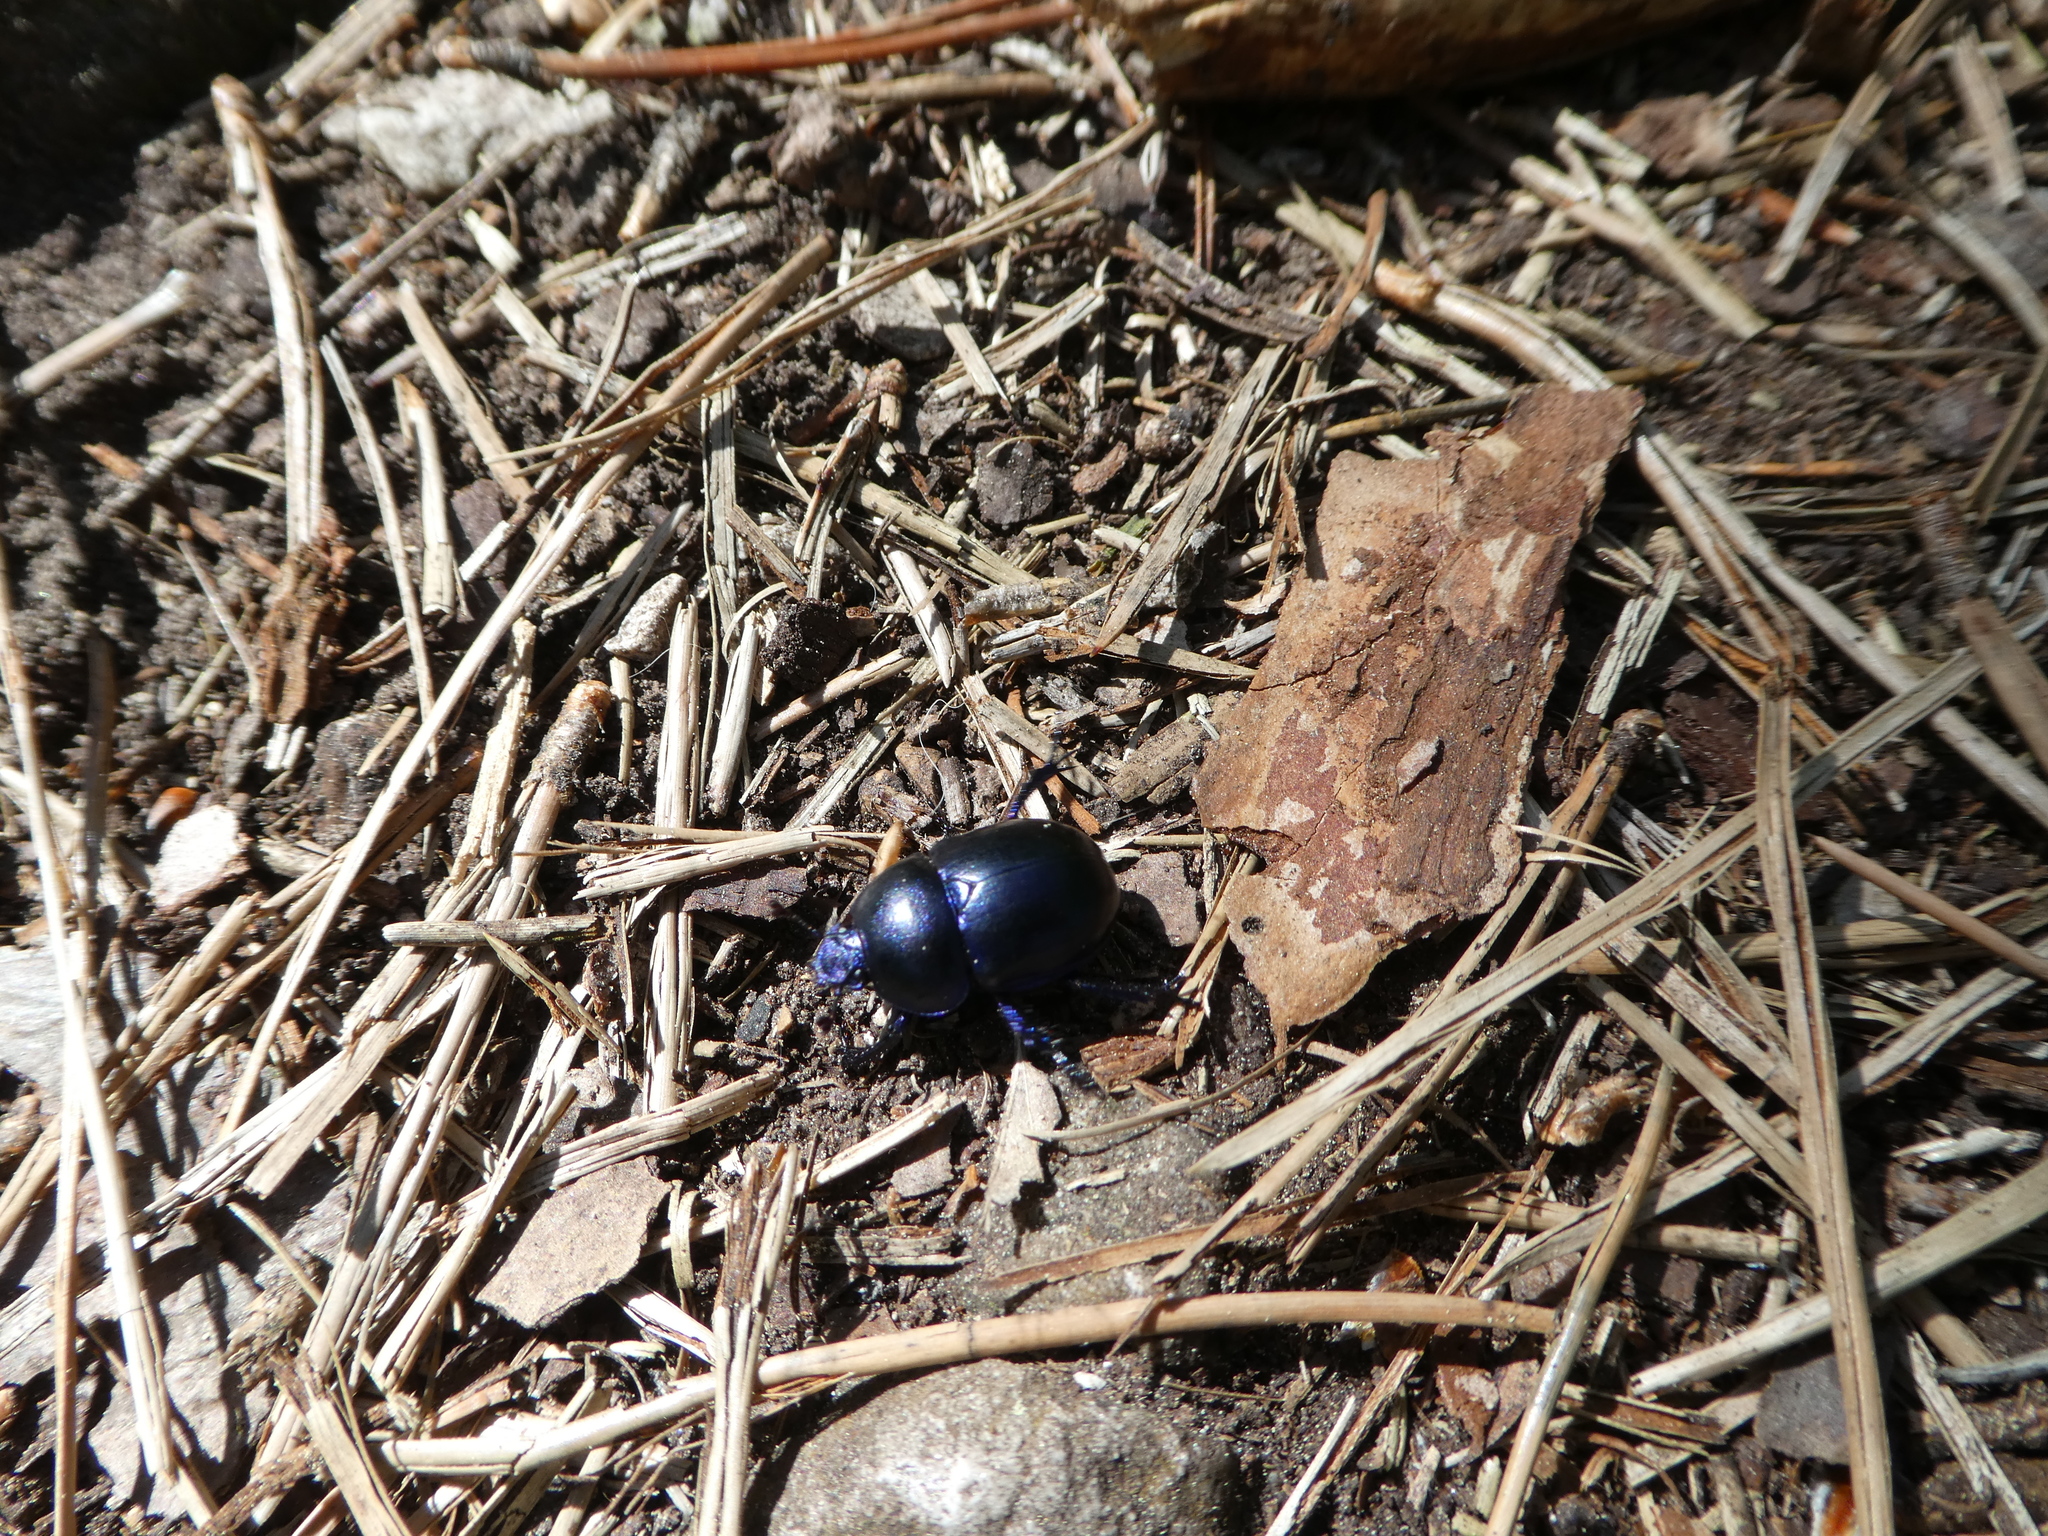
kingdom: Animalia
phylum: Arthropoda
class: Insecta
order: Coleoptera
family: Geotrupidae
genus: Trypocopris
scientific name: Trypocopris vernalis
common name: Spring dumbledor
